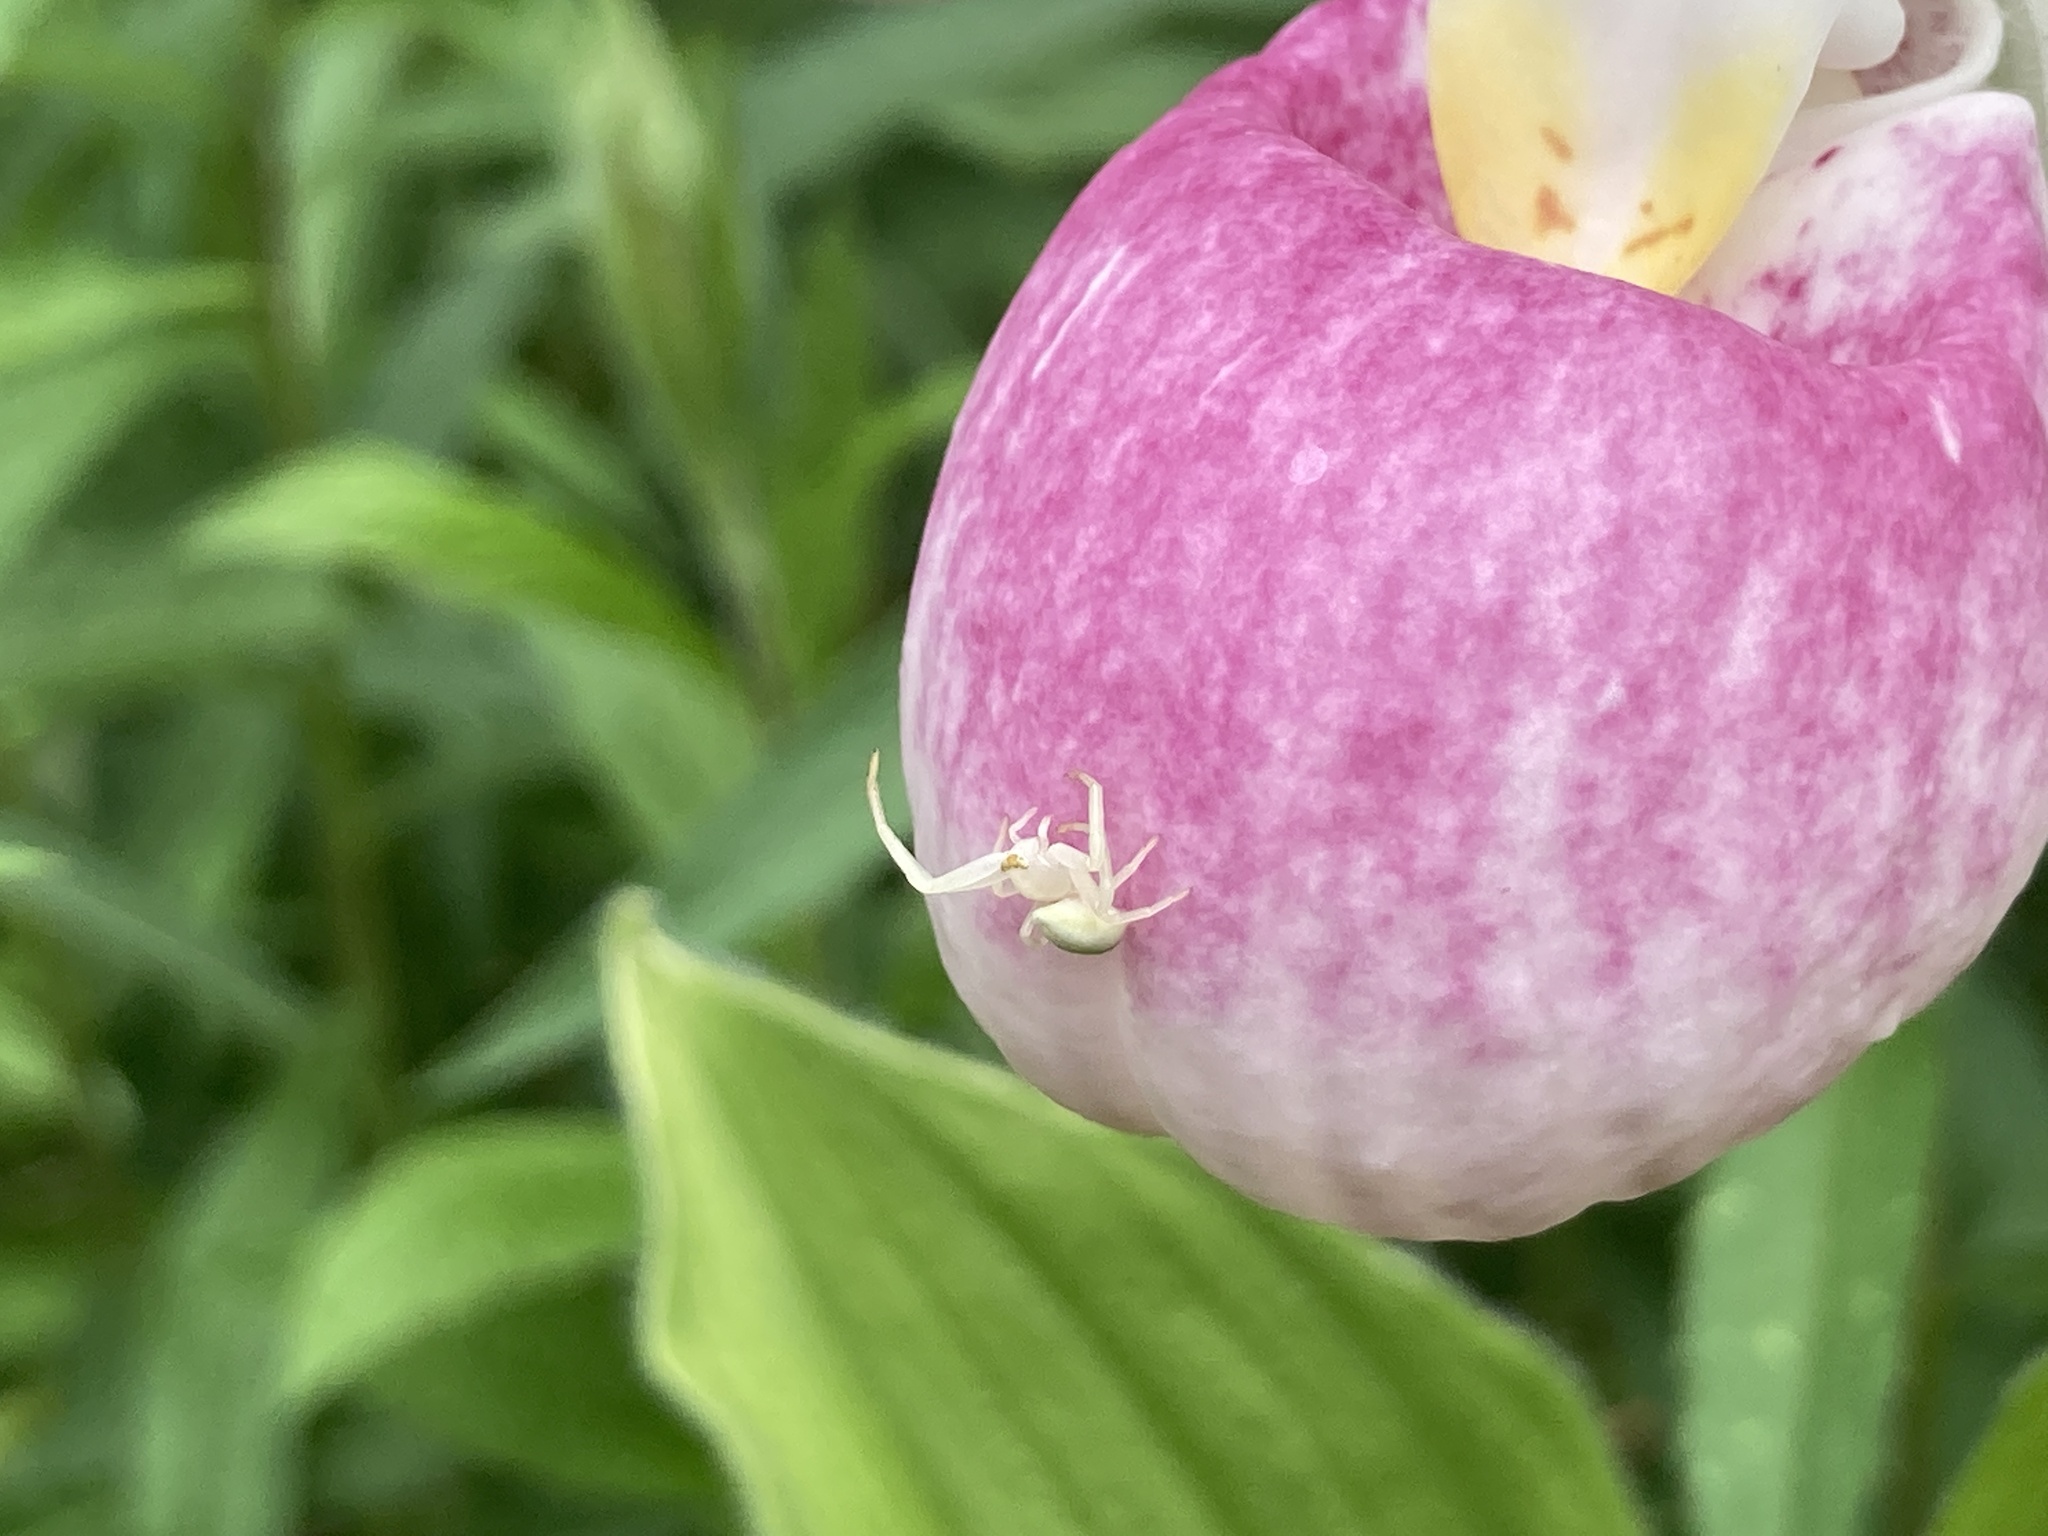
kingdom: Animalia
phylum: Arthropoda
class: Arachnida
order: Araneae
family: Thomisidae
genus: Misumena
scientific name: Misumena vatia
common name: Goldenrod crab spider
